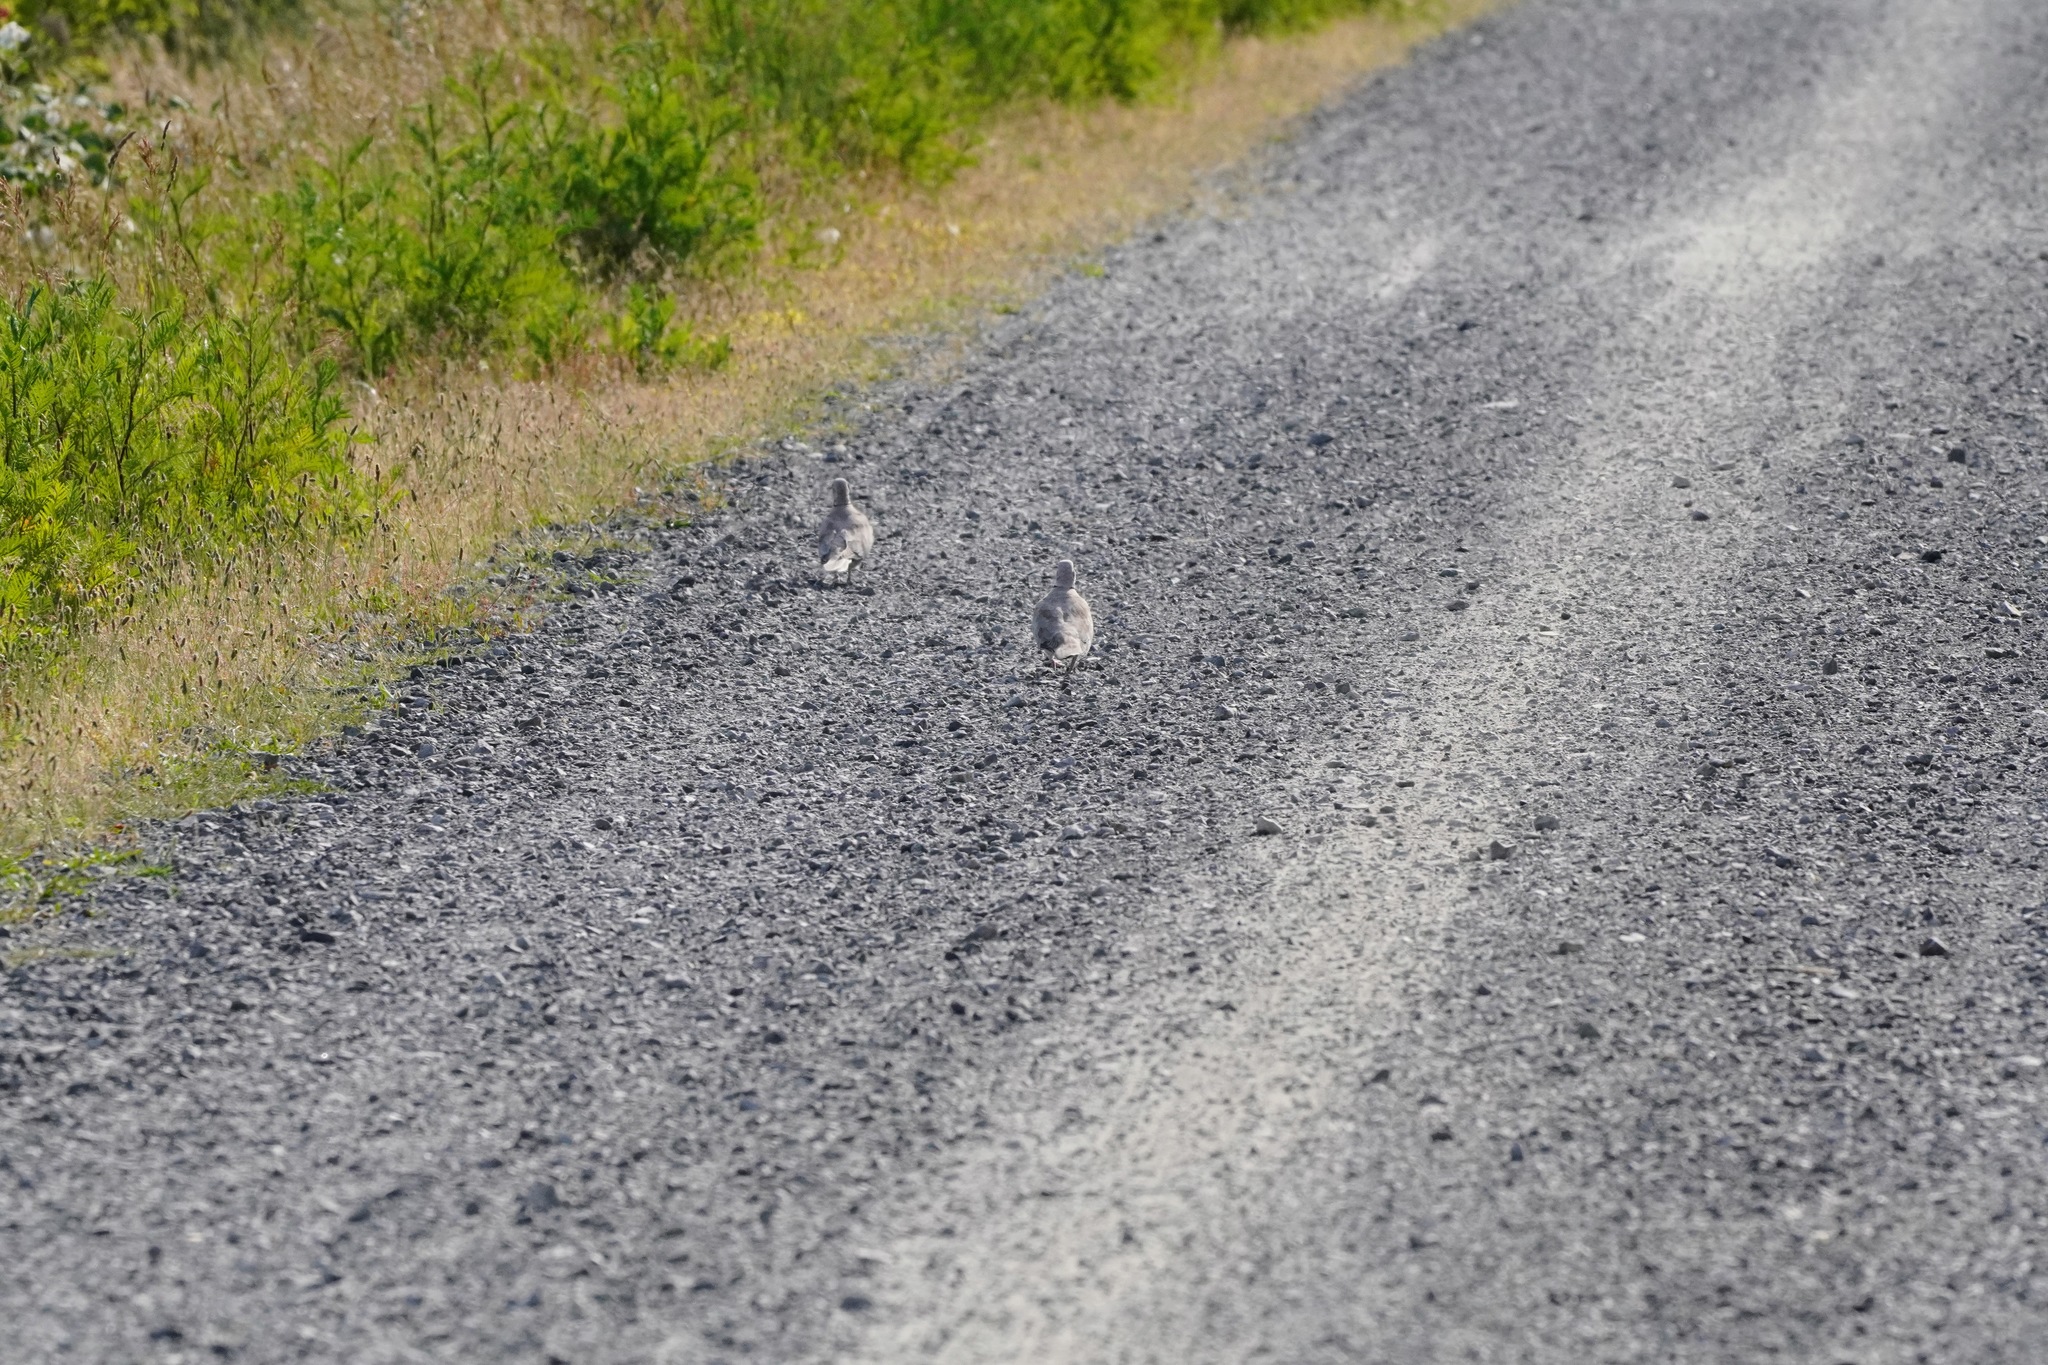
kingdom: Animalia
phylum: Chordata
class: Aves
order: Columbiformes
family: Columbidae
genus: Streptopelia
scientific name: Streptopelia decaocto
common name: Eurasian collared dove
